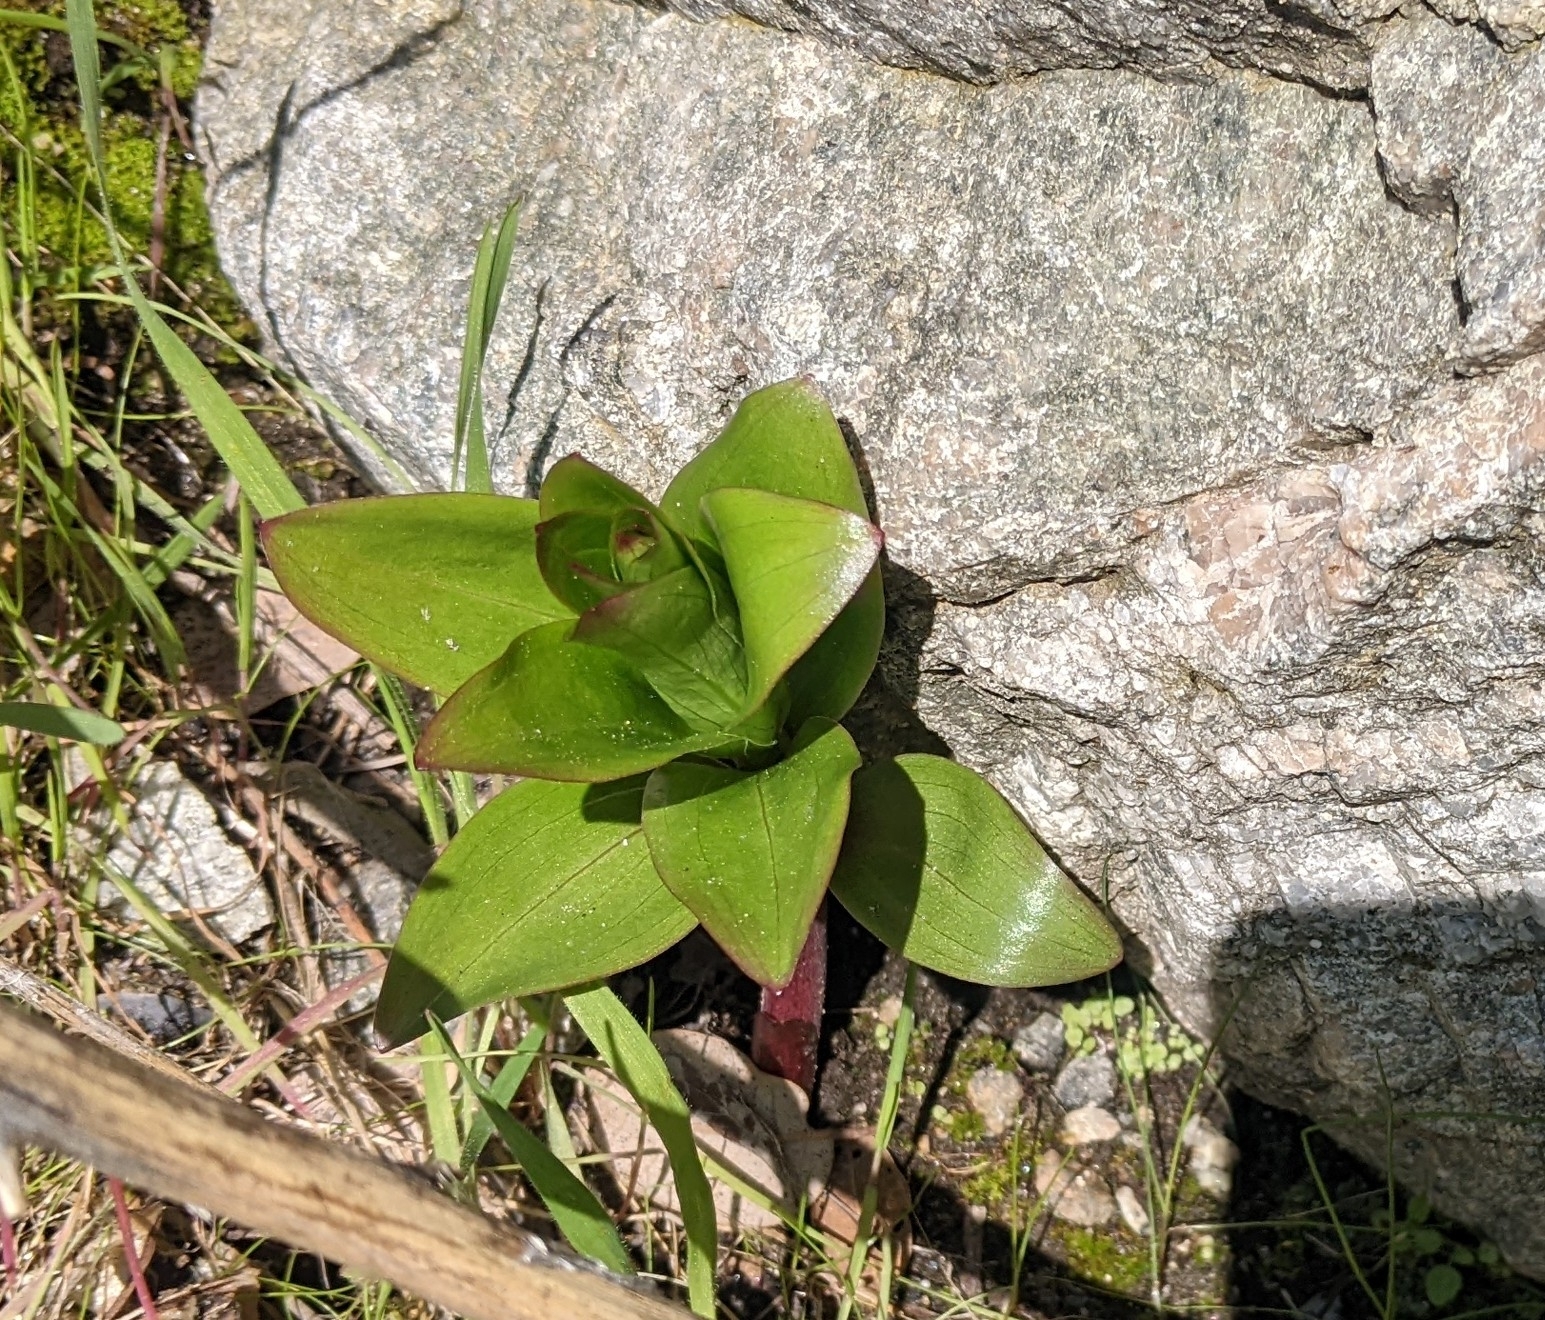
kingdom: Plantae
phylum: Tracheophyta
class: Liliopsida
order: Liliales
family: Liliaceae
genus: Lilium
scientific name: Lilium humboldtii
